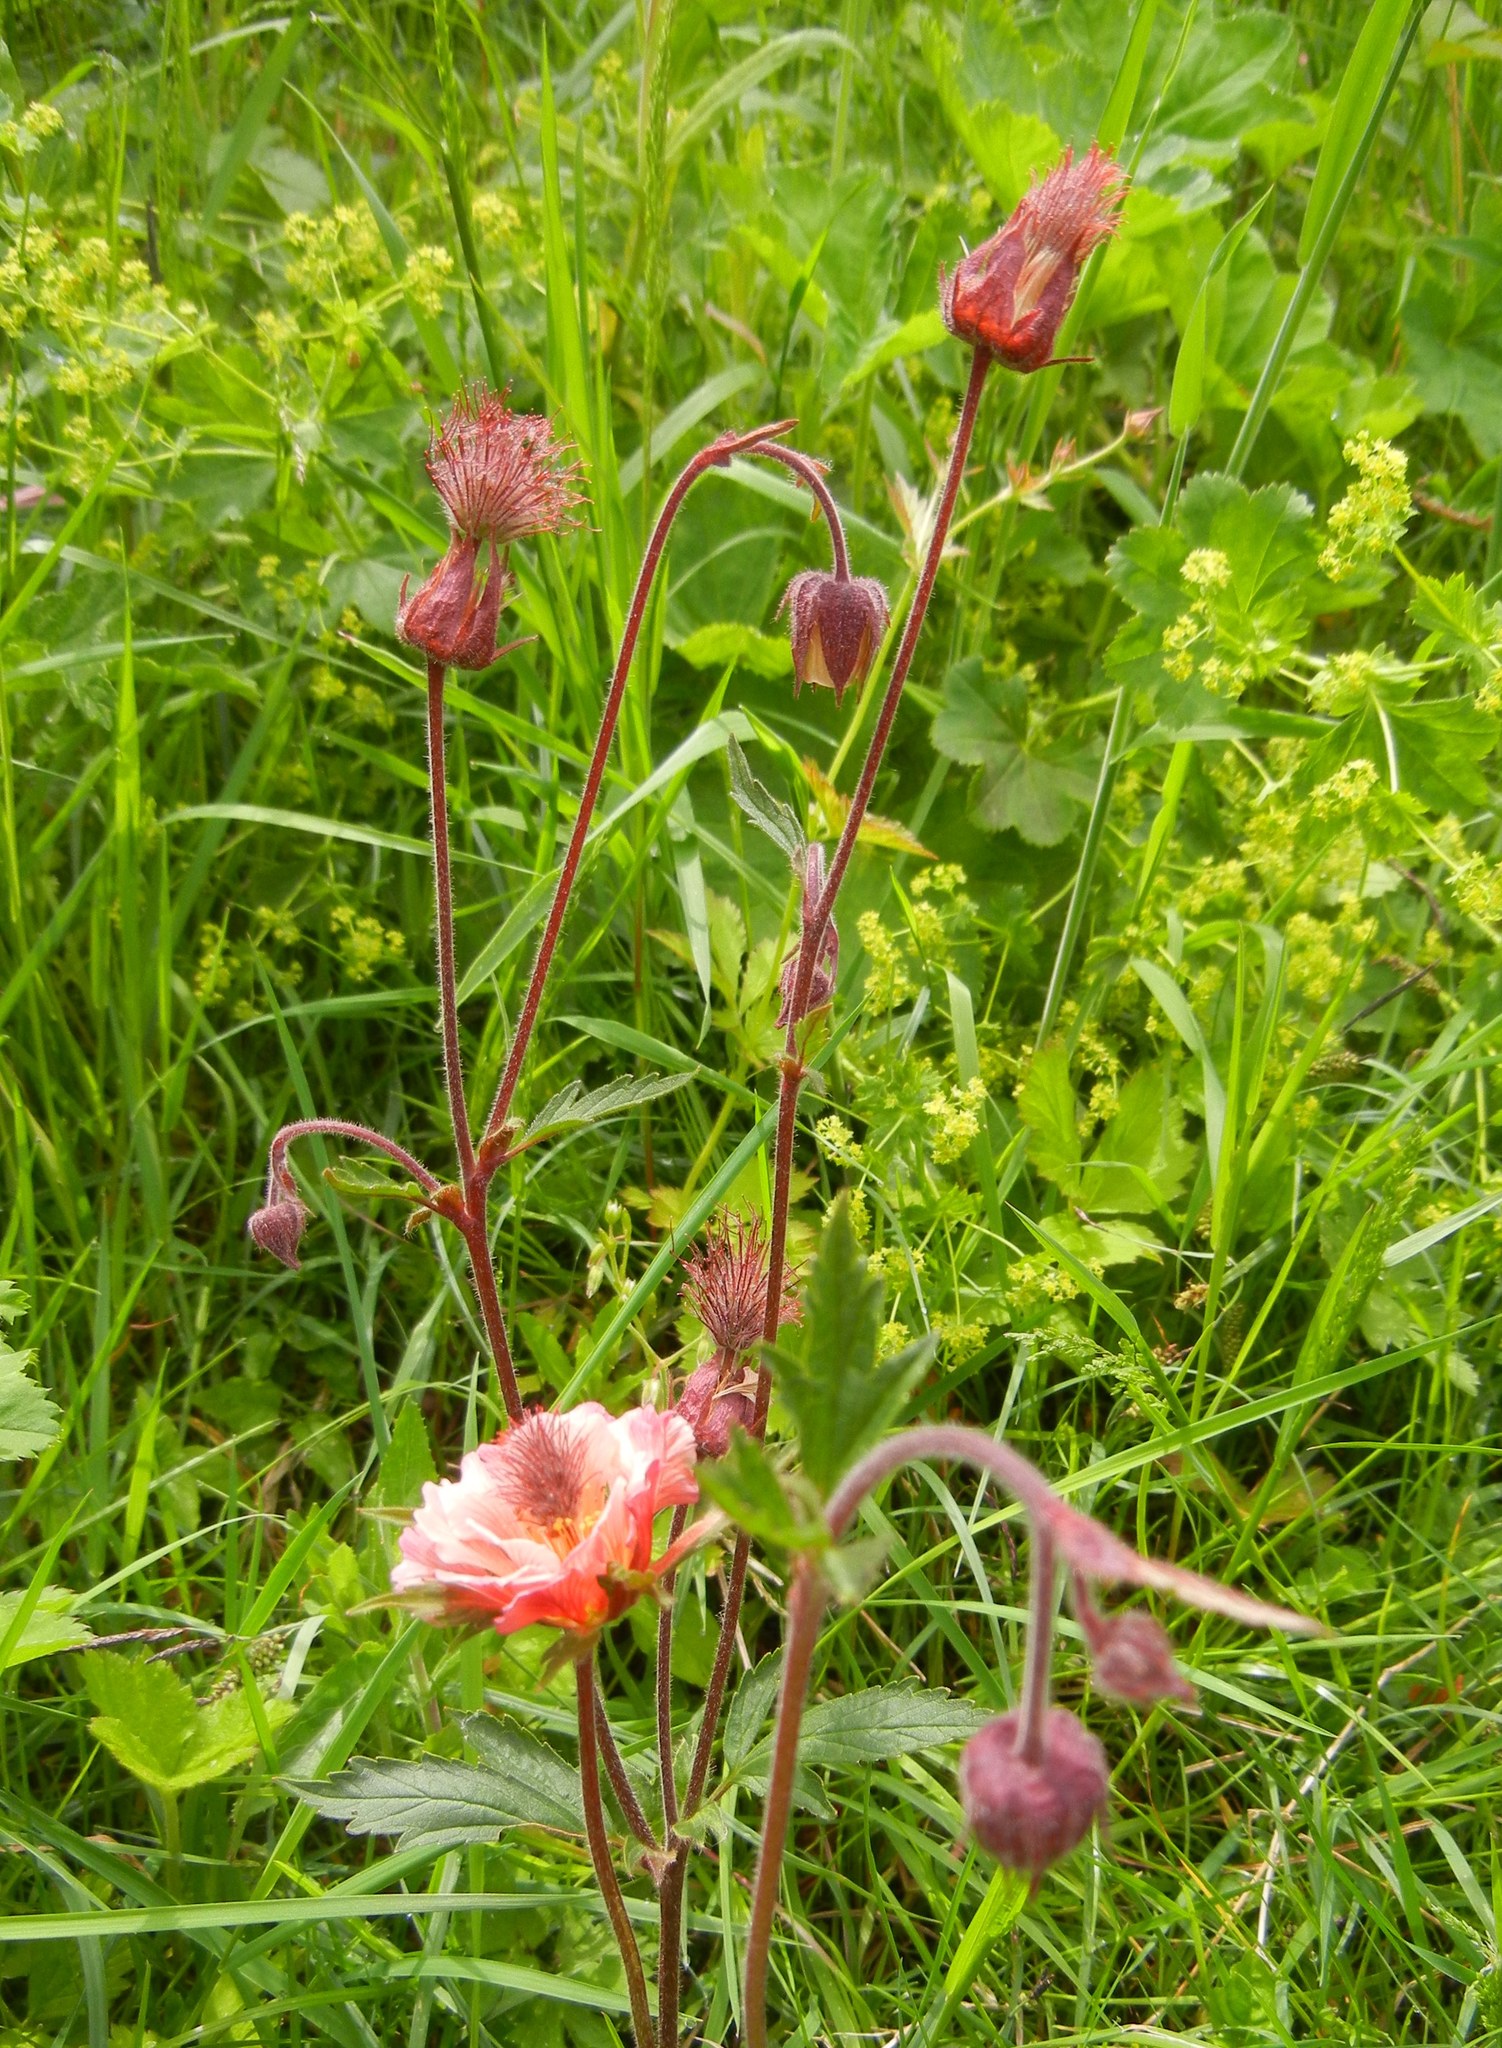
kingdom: Plantae
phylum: Tracheophyta
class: Magnoliopsida
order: Rosales
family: Rosaceae
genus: Geum
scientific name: Geum rivale
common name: Water avens
